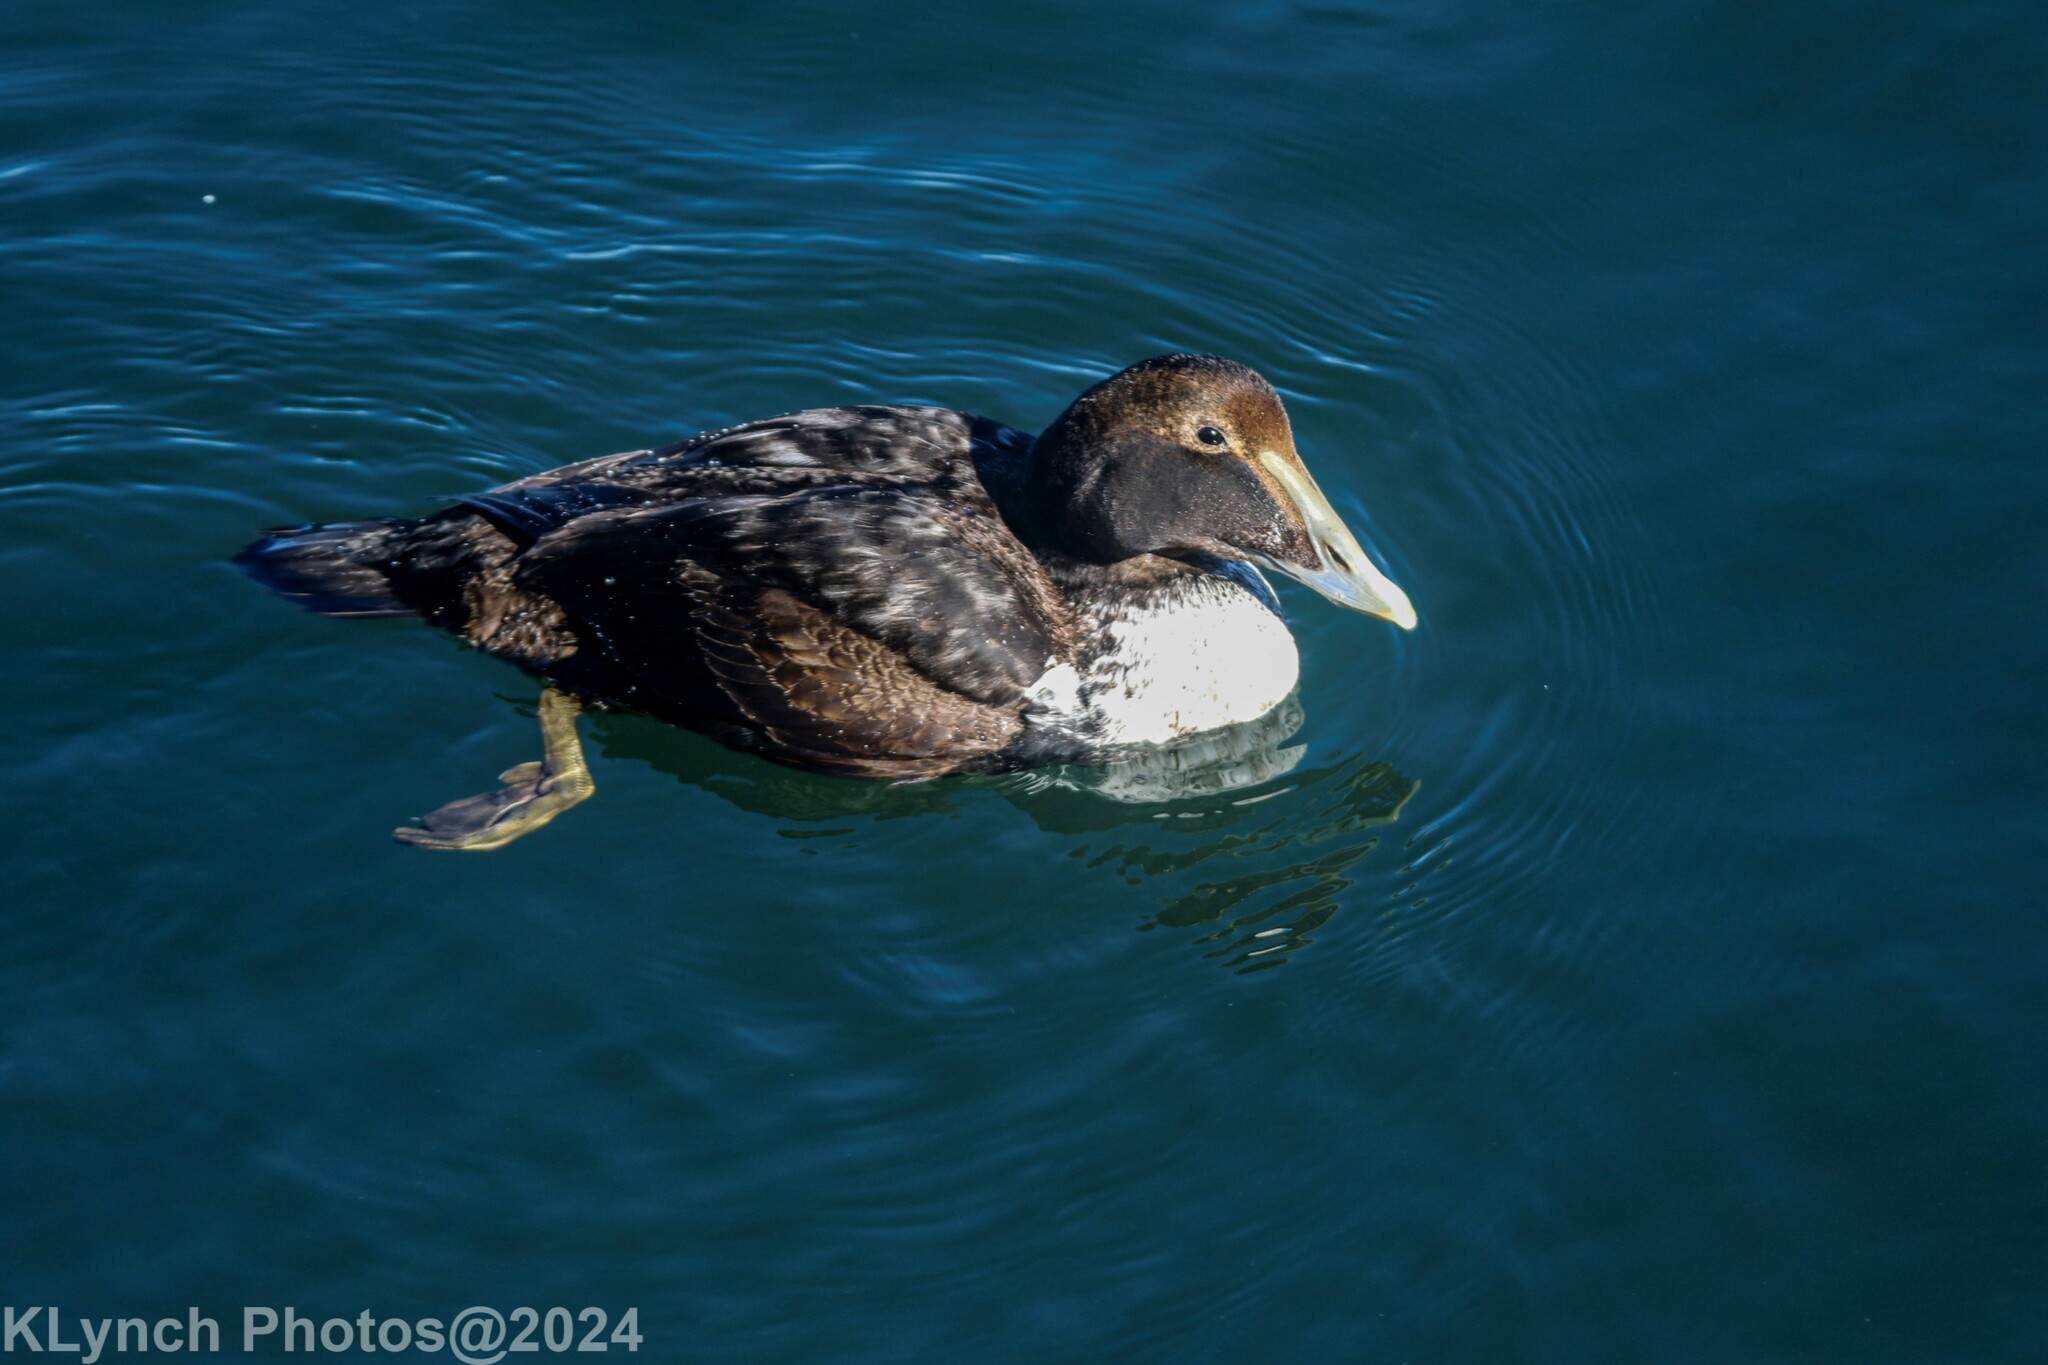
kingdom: Animalia
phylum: Chordata
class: Aves
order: Anseriformes
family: Anatidae
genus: Somateria
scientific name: Somateria mollissima
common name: Common eider
